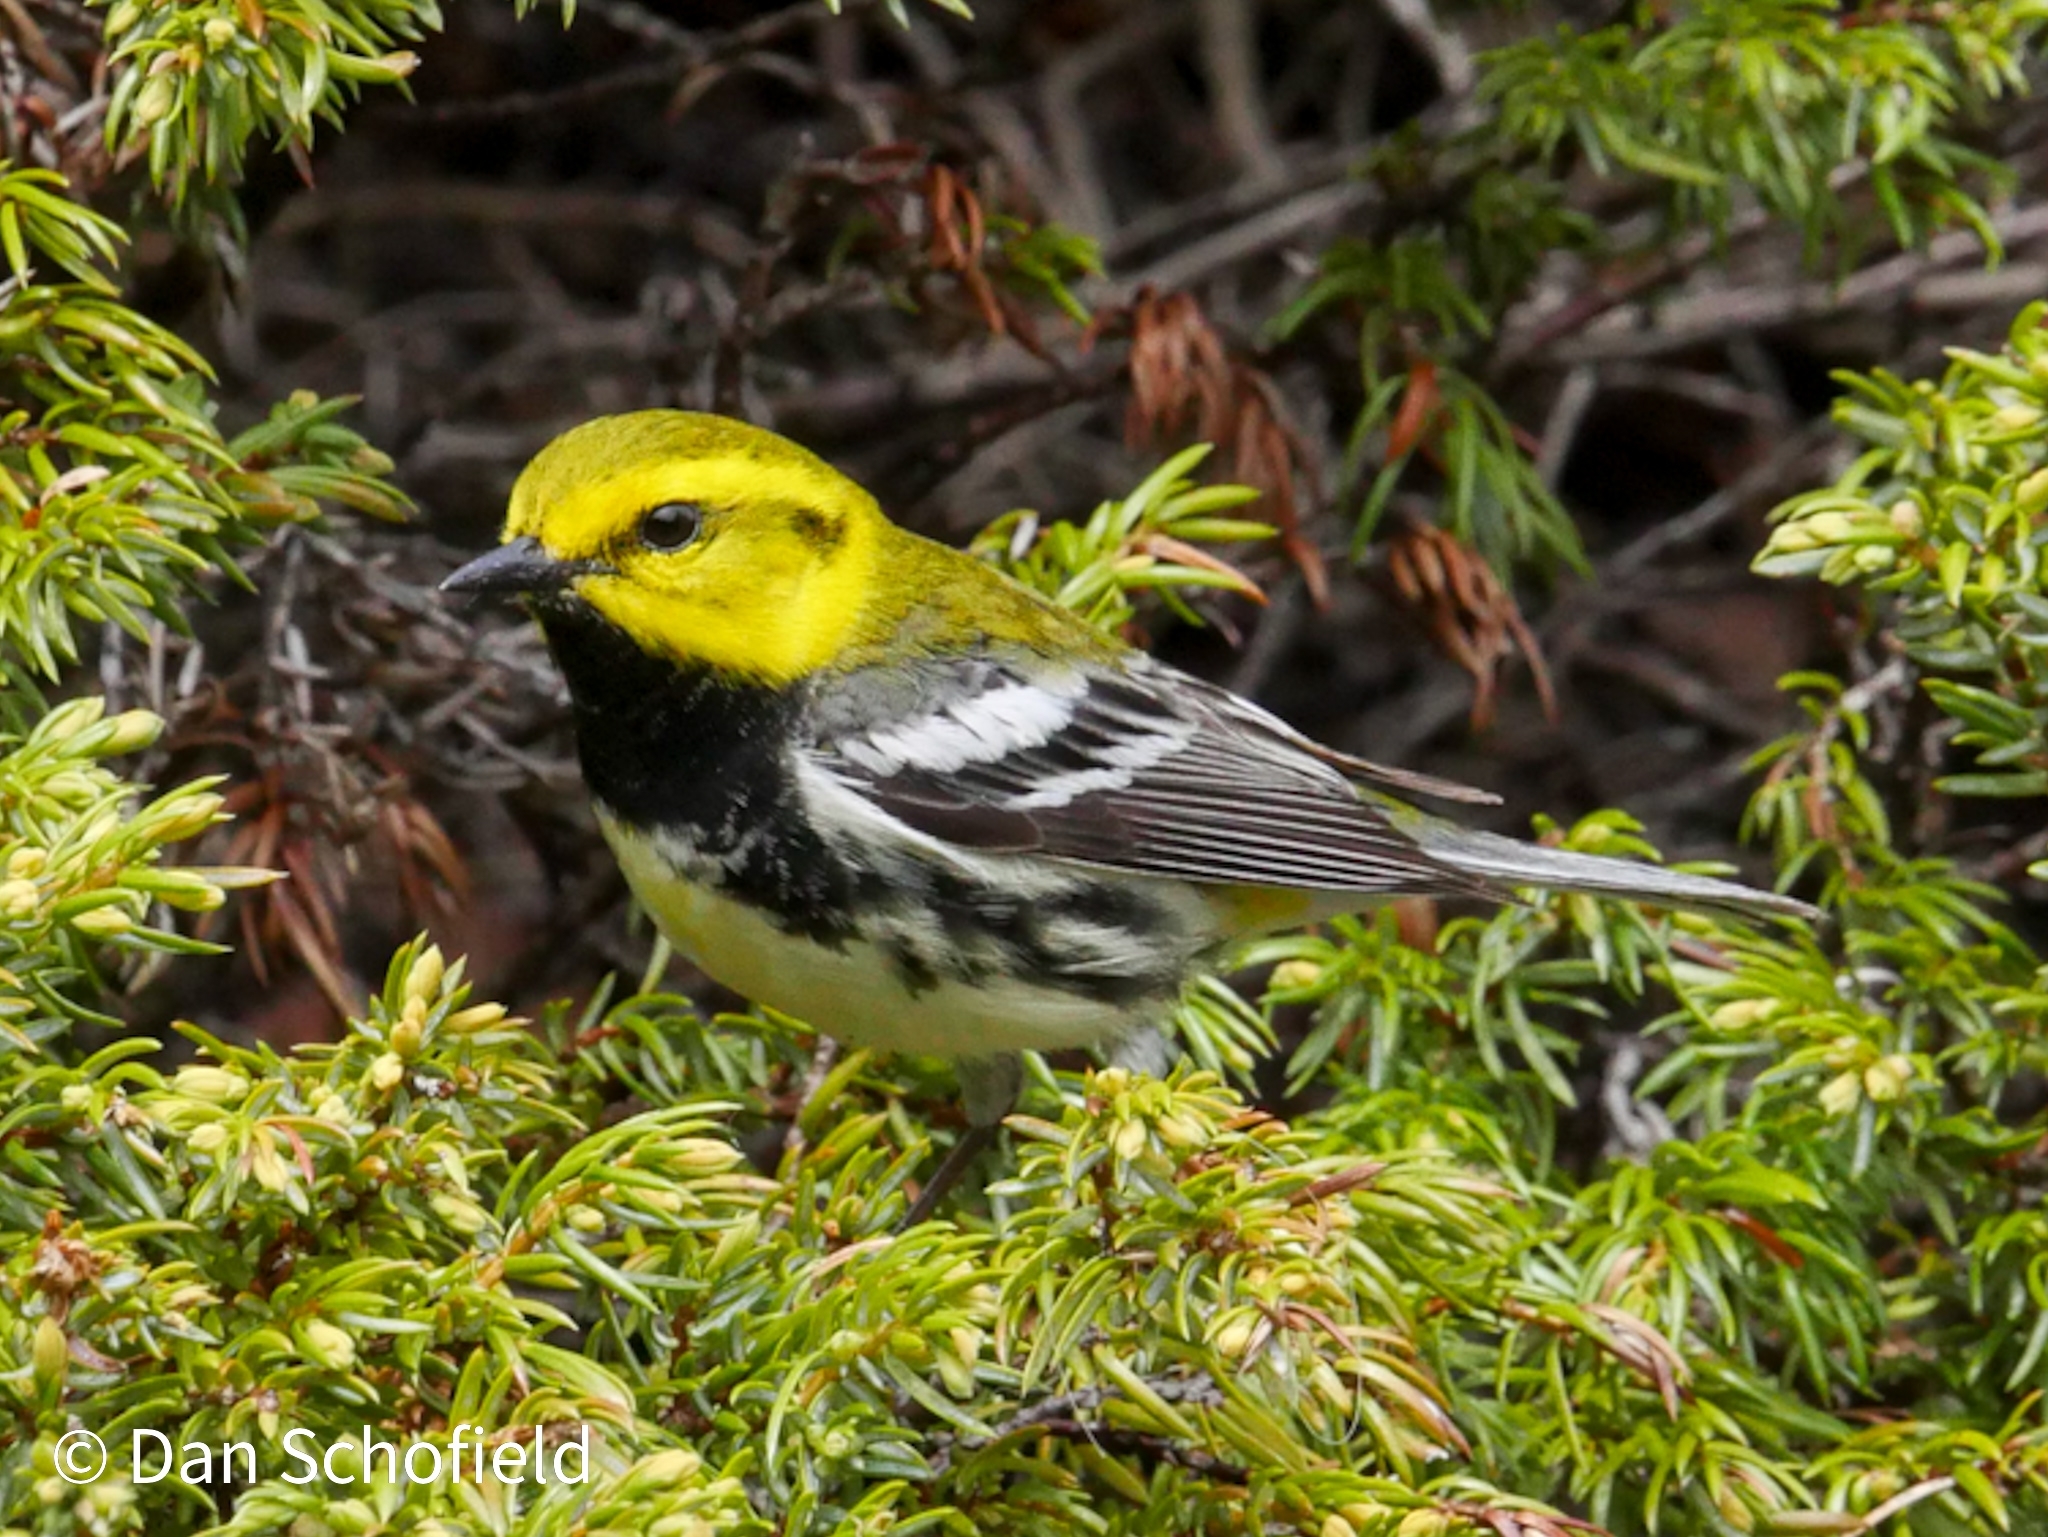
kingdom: Animalia
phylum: Chordata
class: Aves
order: Passeriformes
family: Parulidae
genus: Setophaga
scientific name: Setophaga virens
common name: Black-throated green warbler
